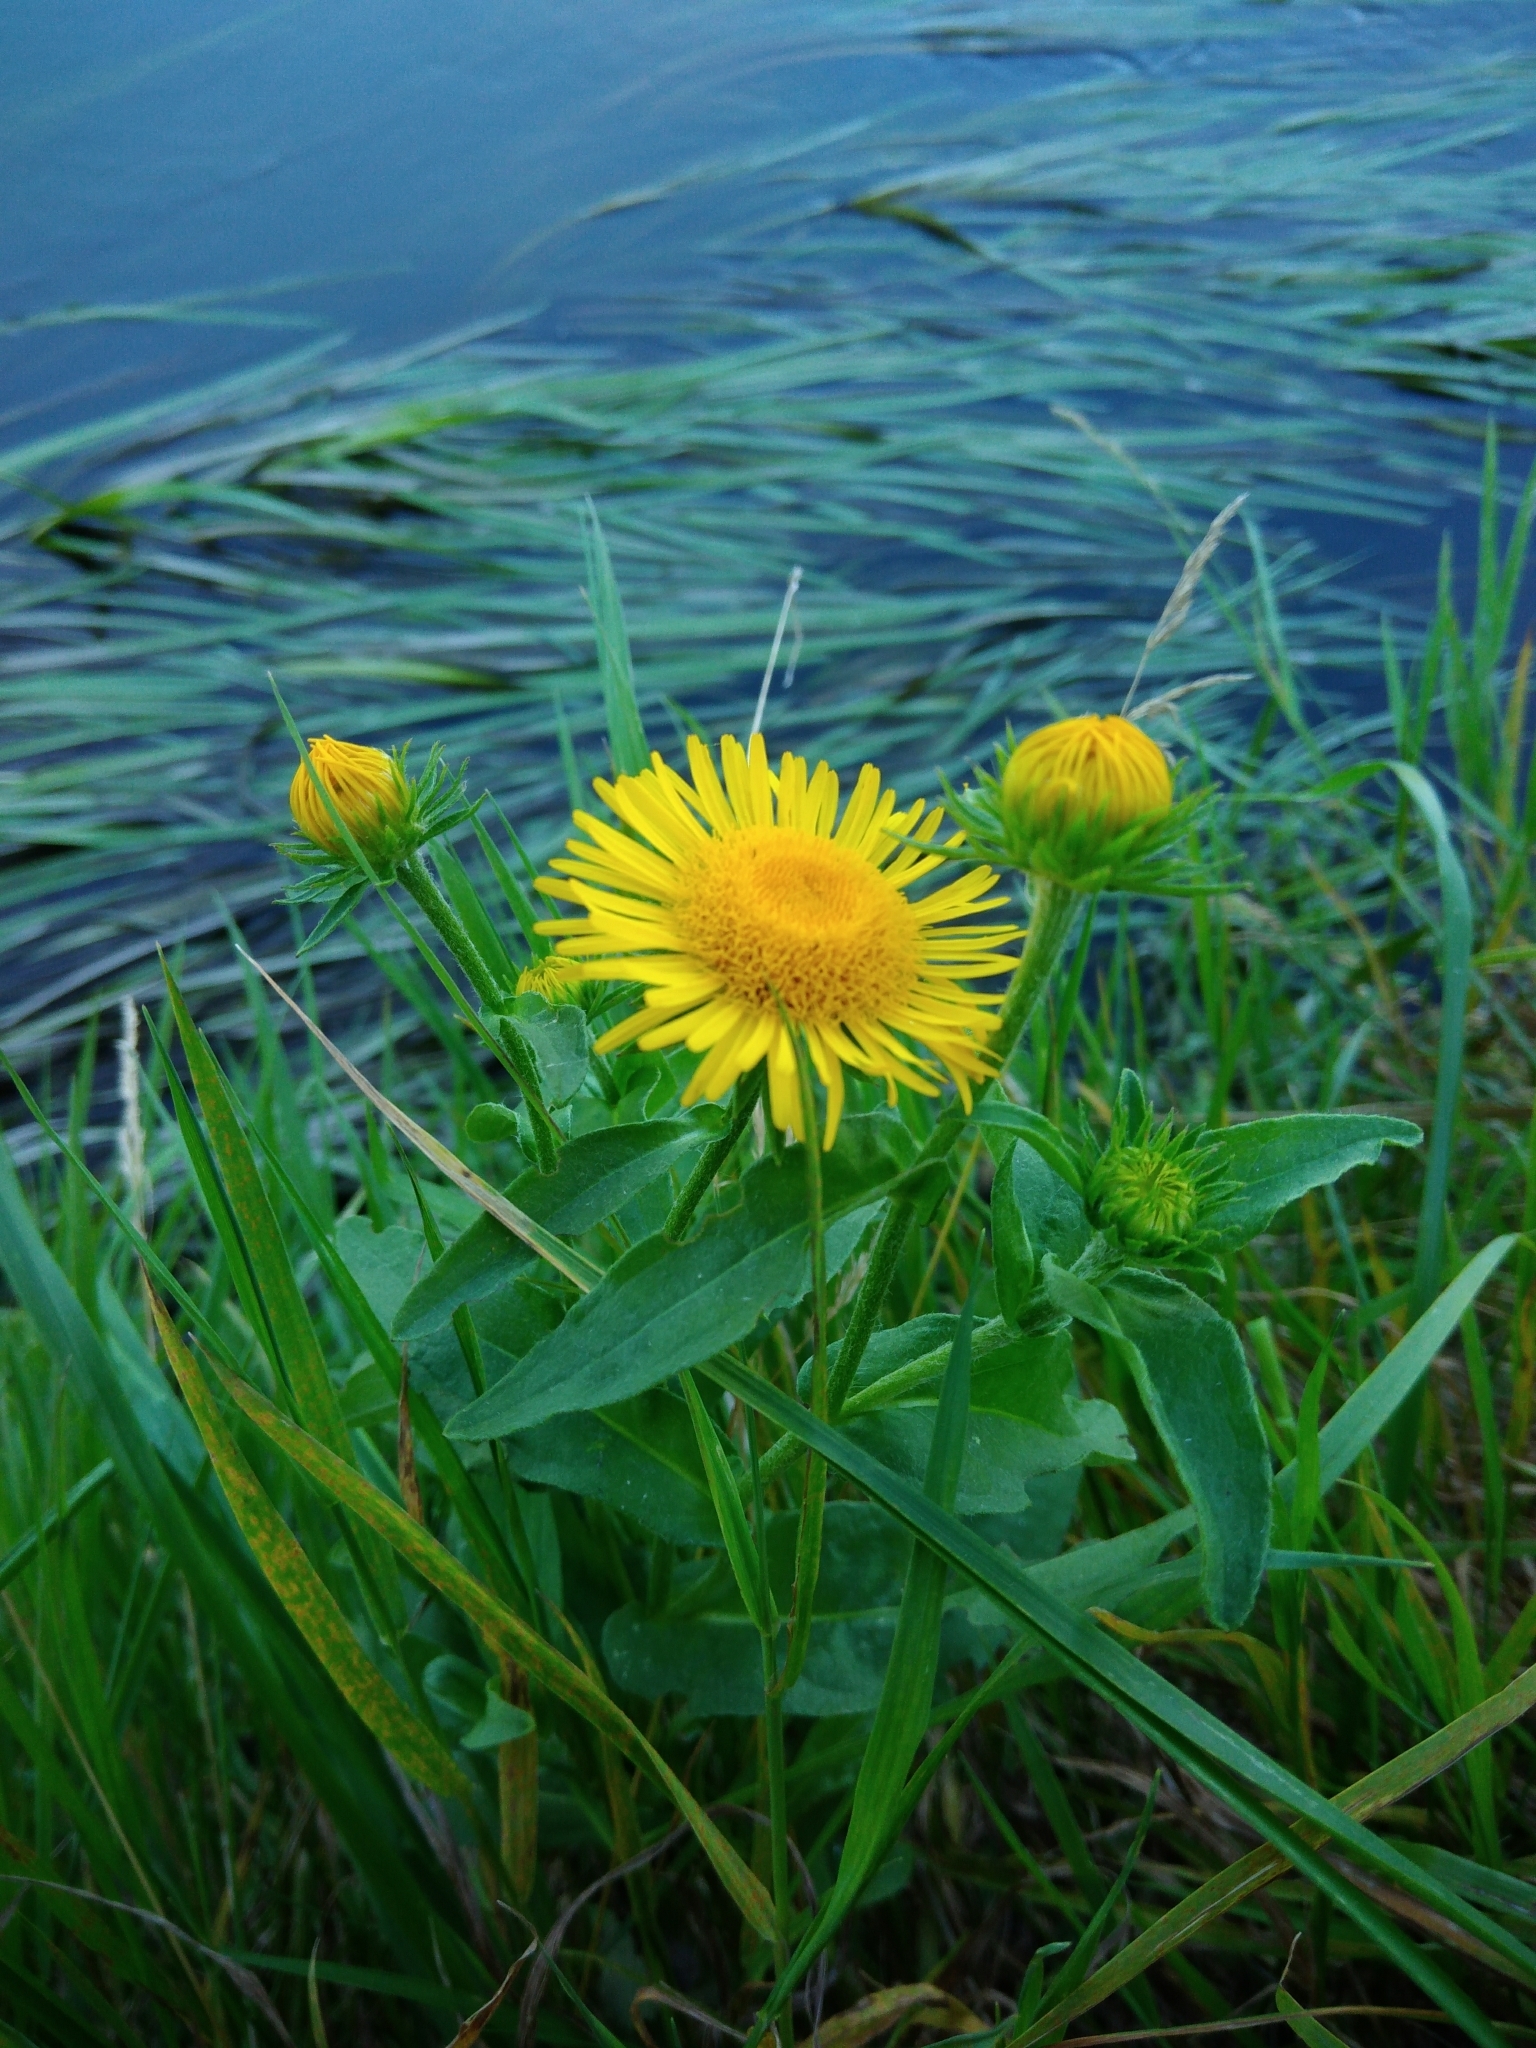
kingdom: Plantae
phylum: Tracheophyta
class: Magnoliopsida
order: Asterales
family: Asteraceae
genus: Pentanema
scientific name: Pentanema britannicum
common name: British elecampane
